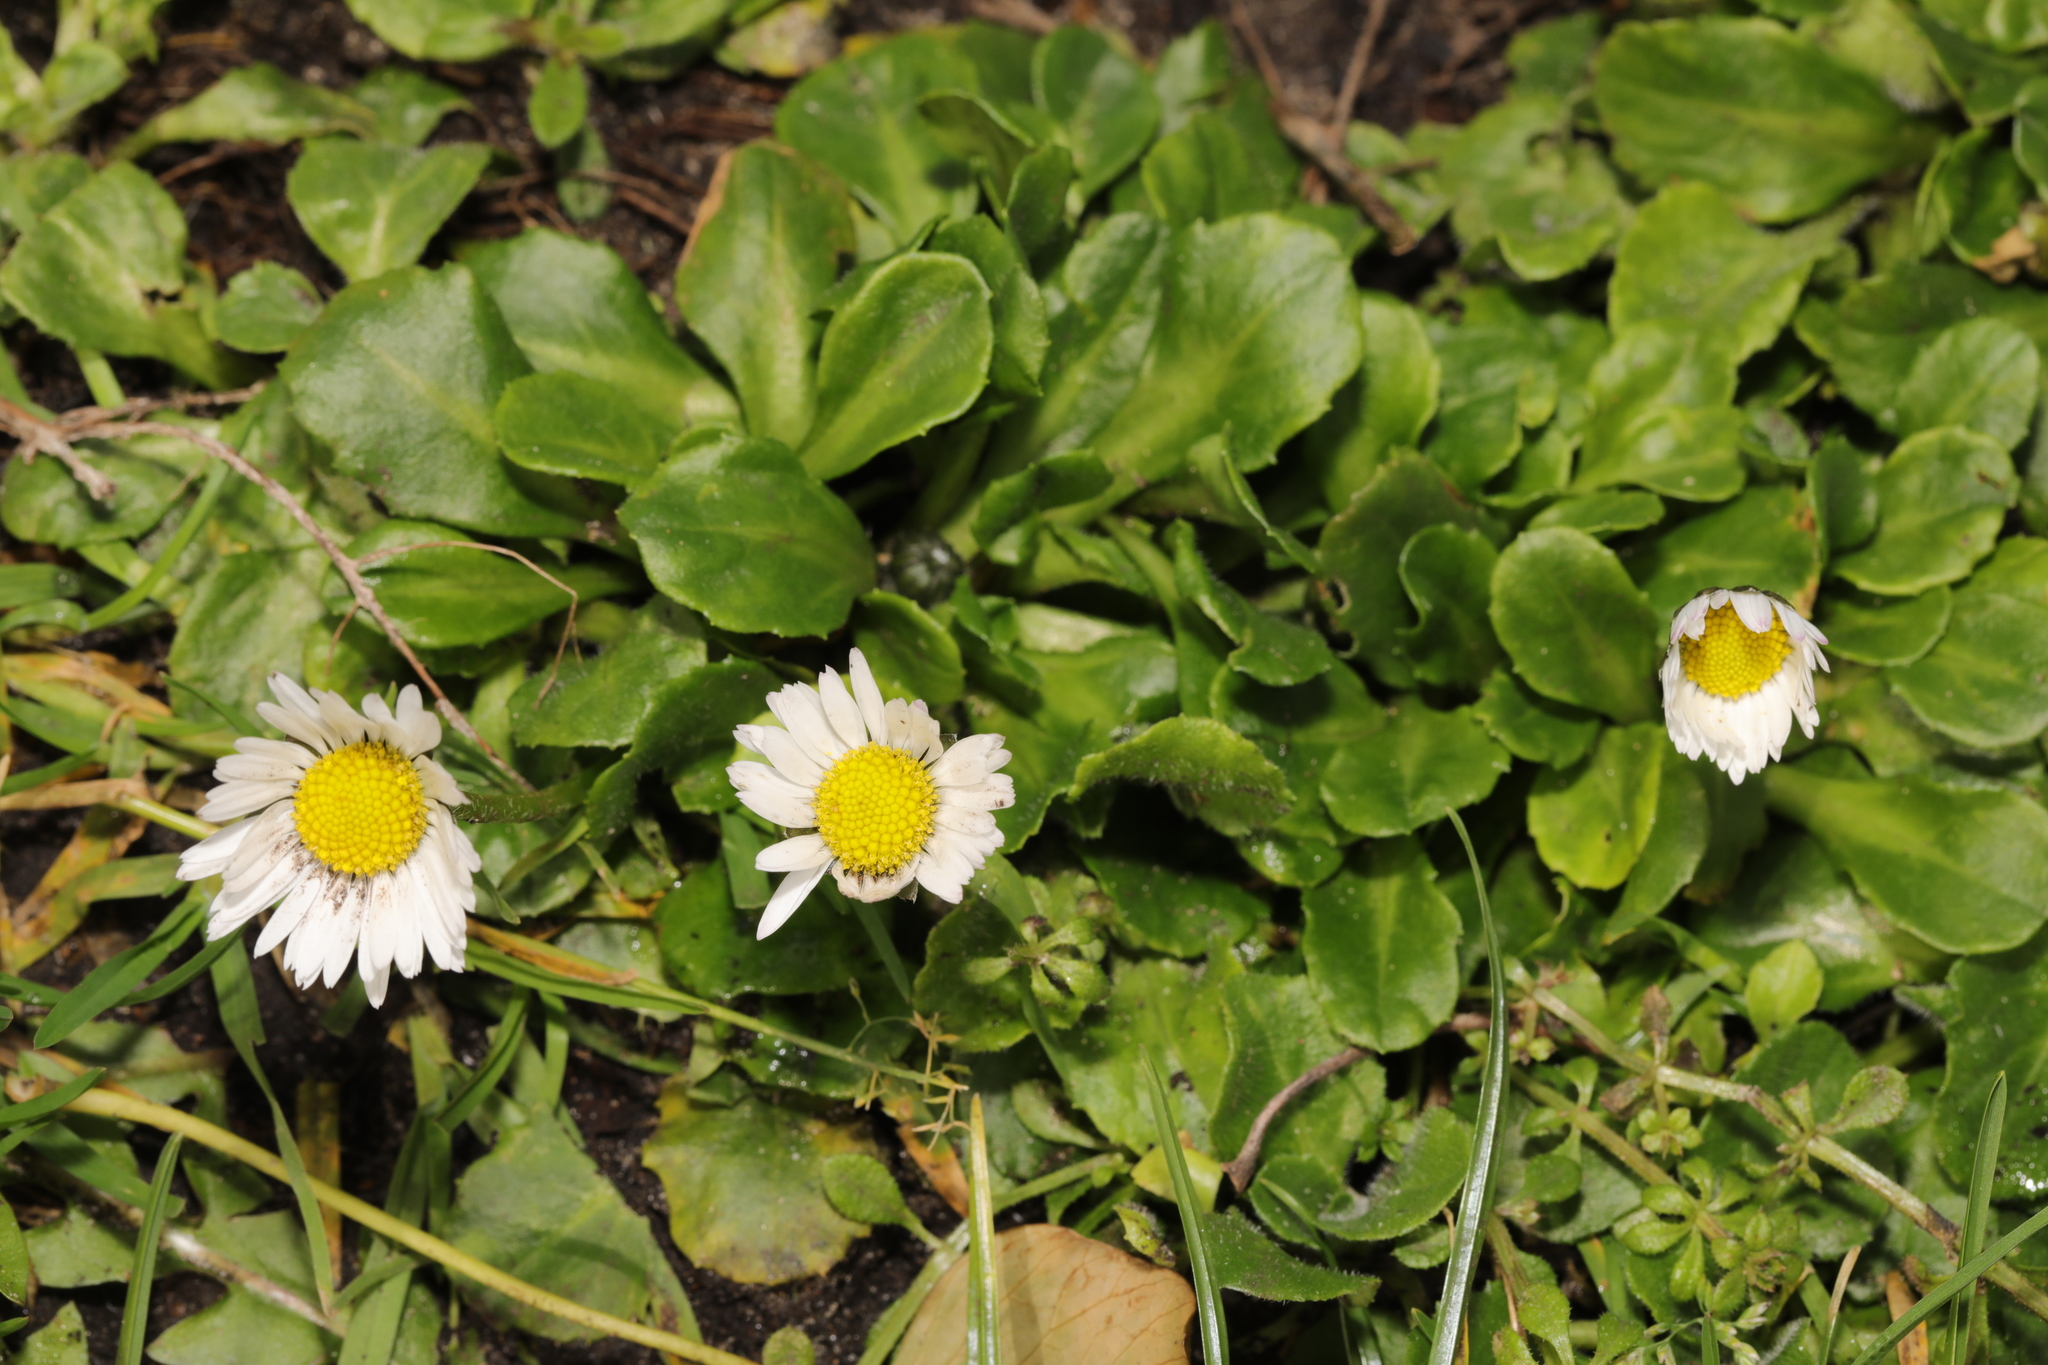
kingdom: Plantae
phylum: Tracheophyta
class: Magnoliopsida
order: Asterales
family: Asteraceae
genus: Bellis
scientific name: Bellis perennis
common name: Lawndaisy
